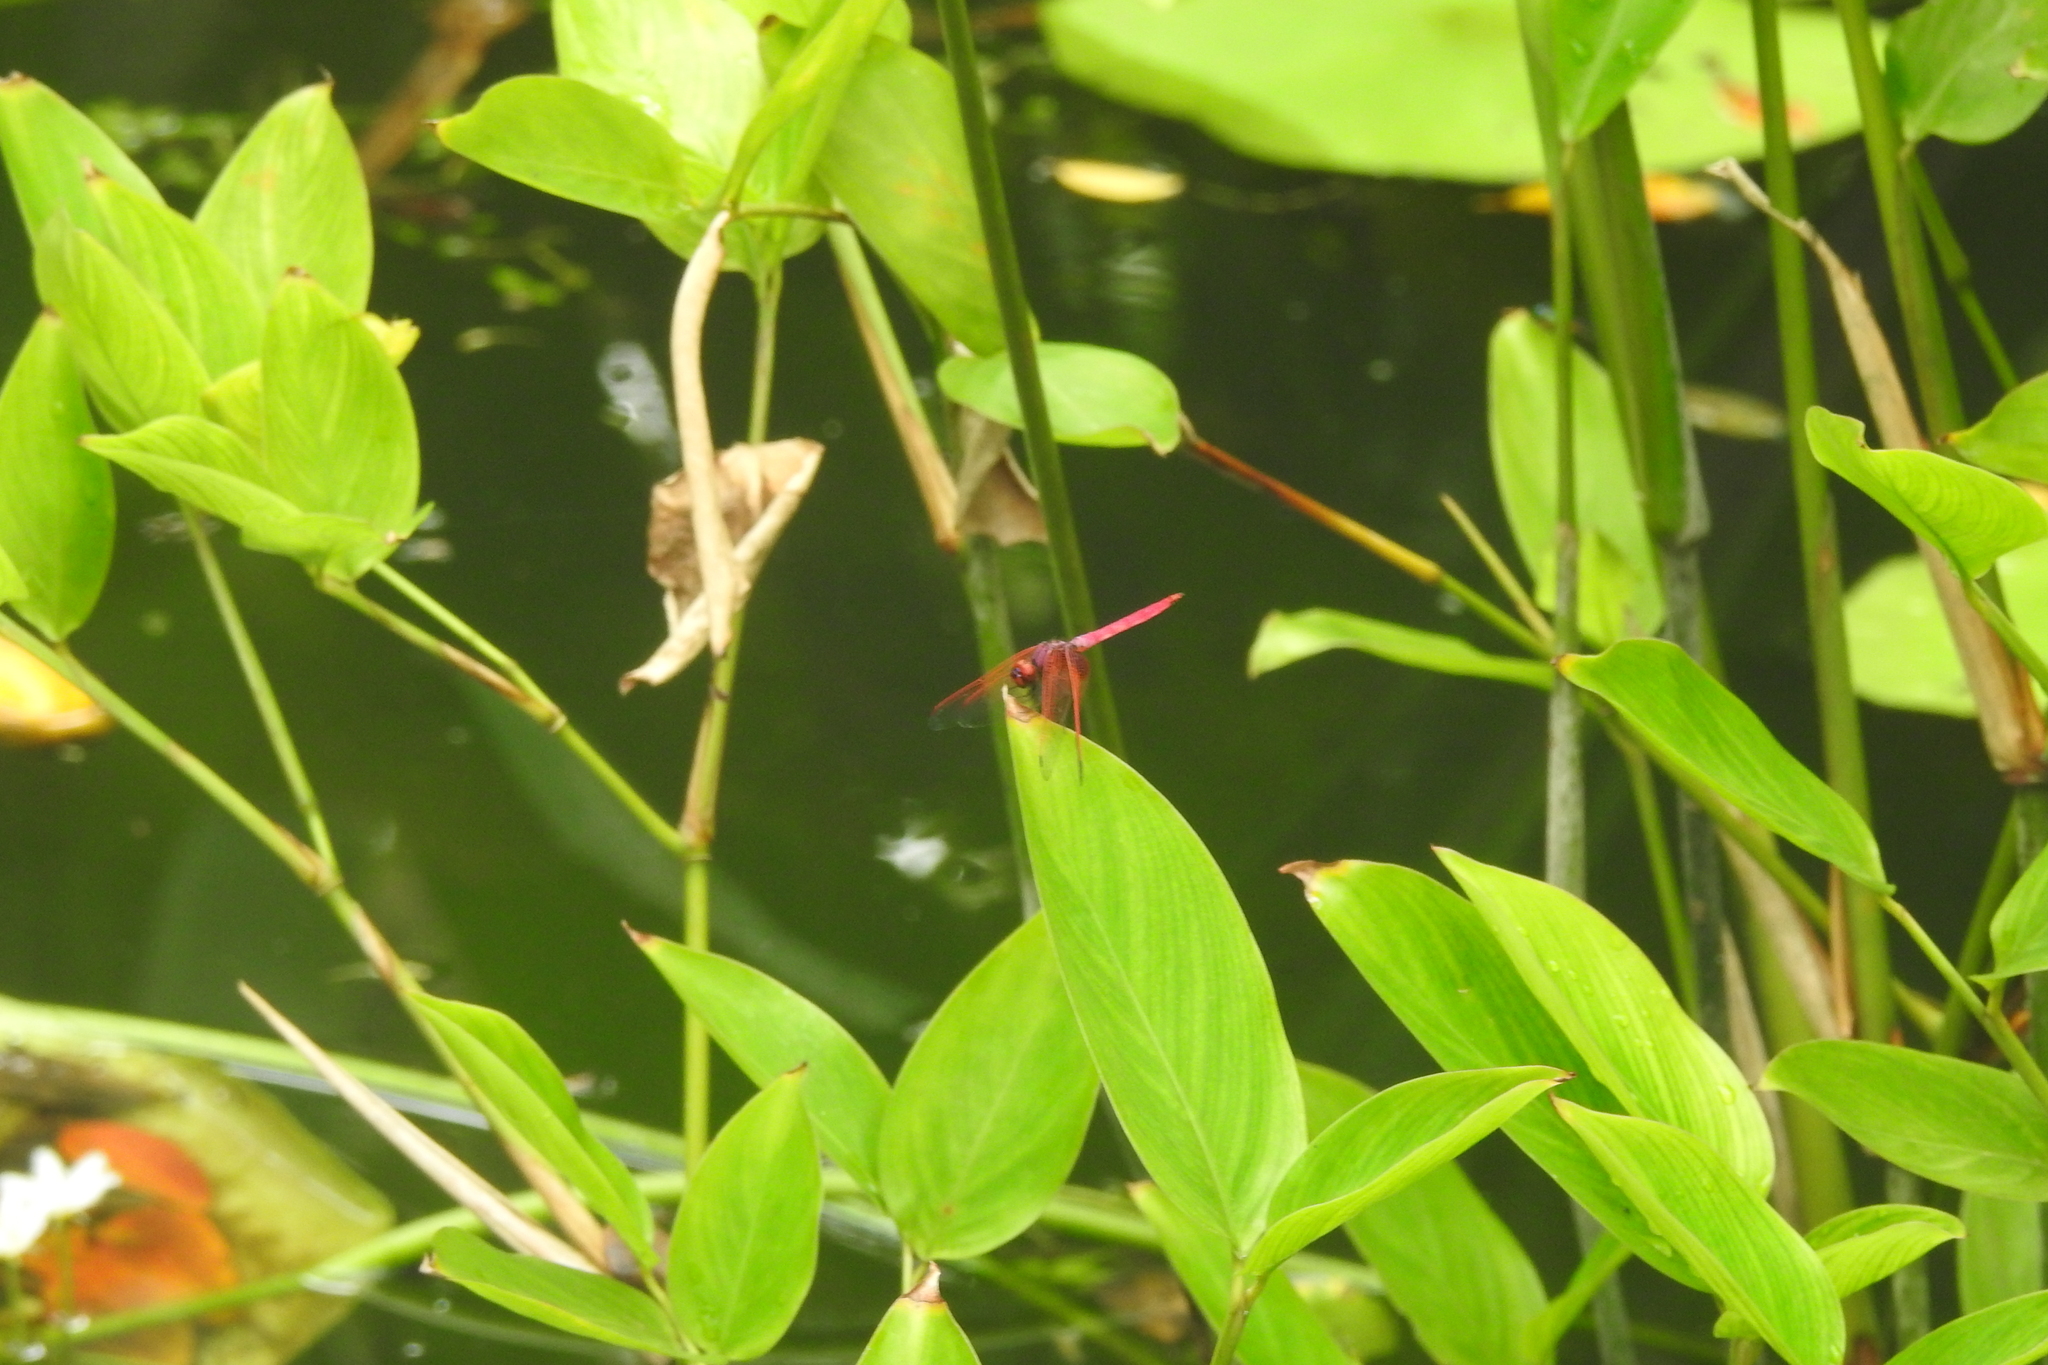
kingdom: Animalia
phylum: Arthropoda
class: Insecta
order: Odonata
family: Libellulidae
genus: Trithemis
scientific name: Trithemis aurora
